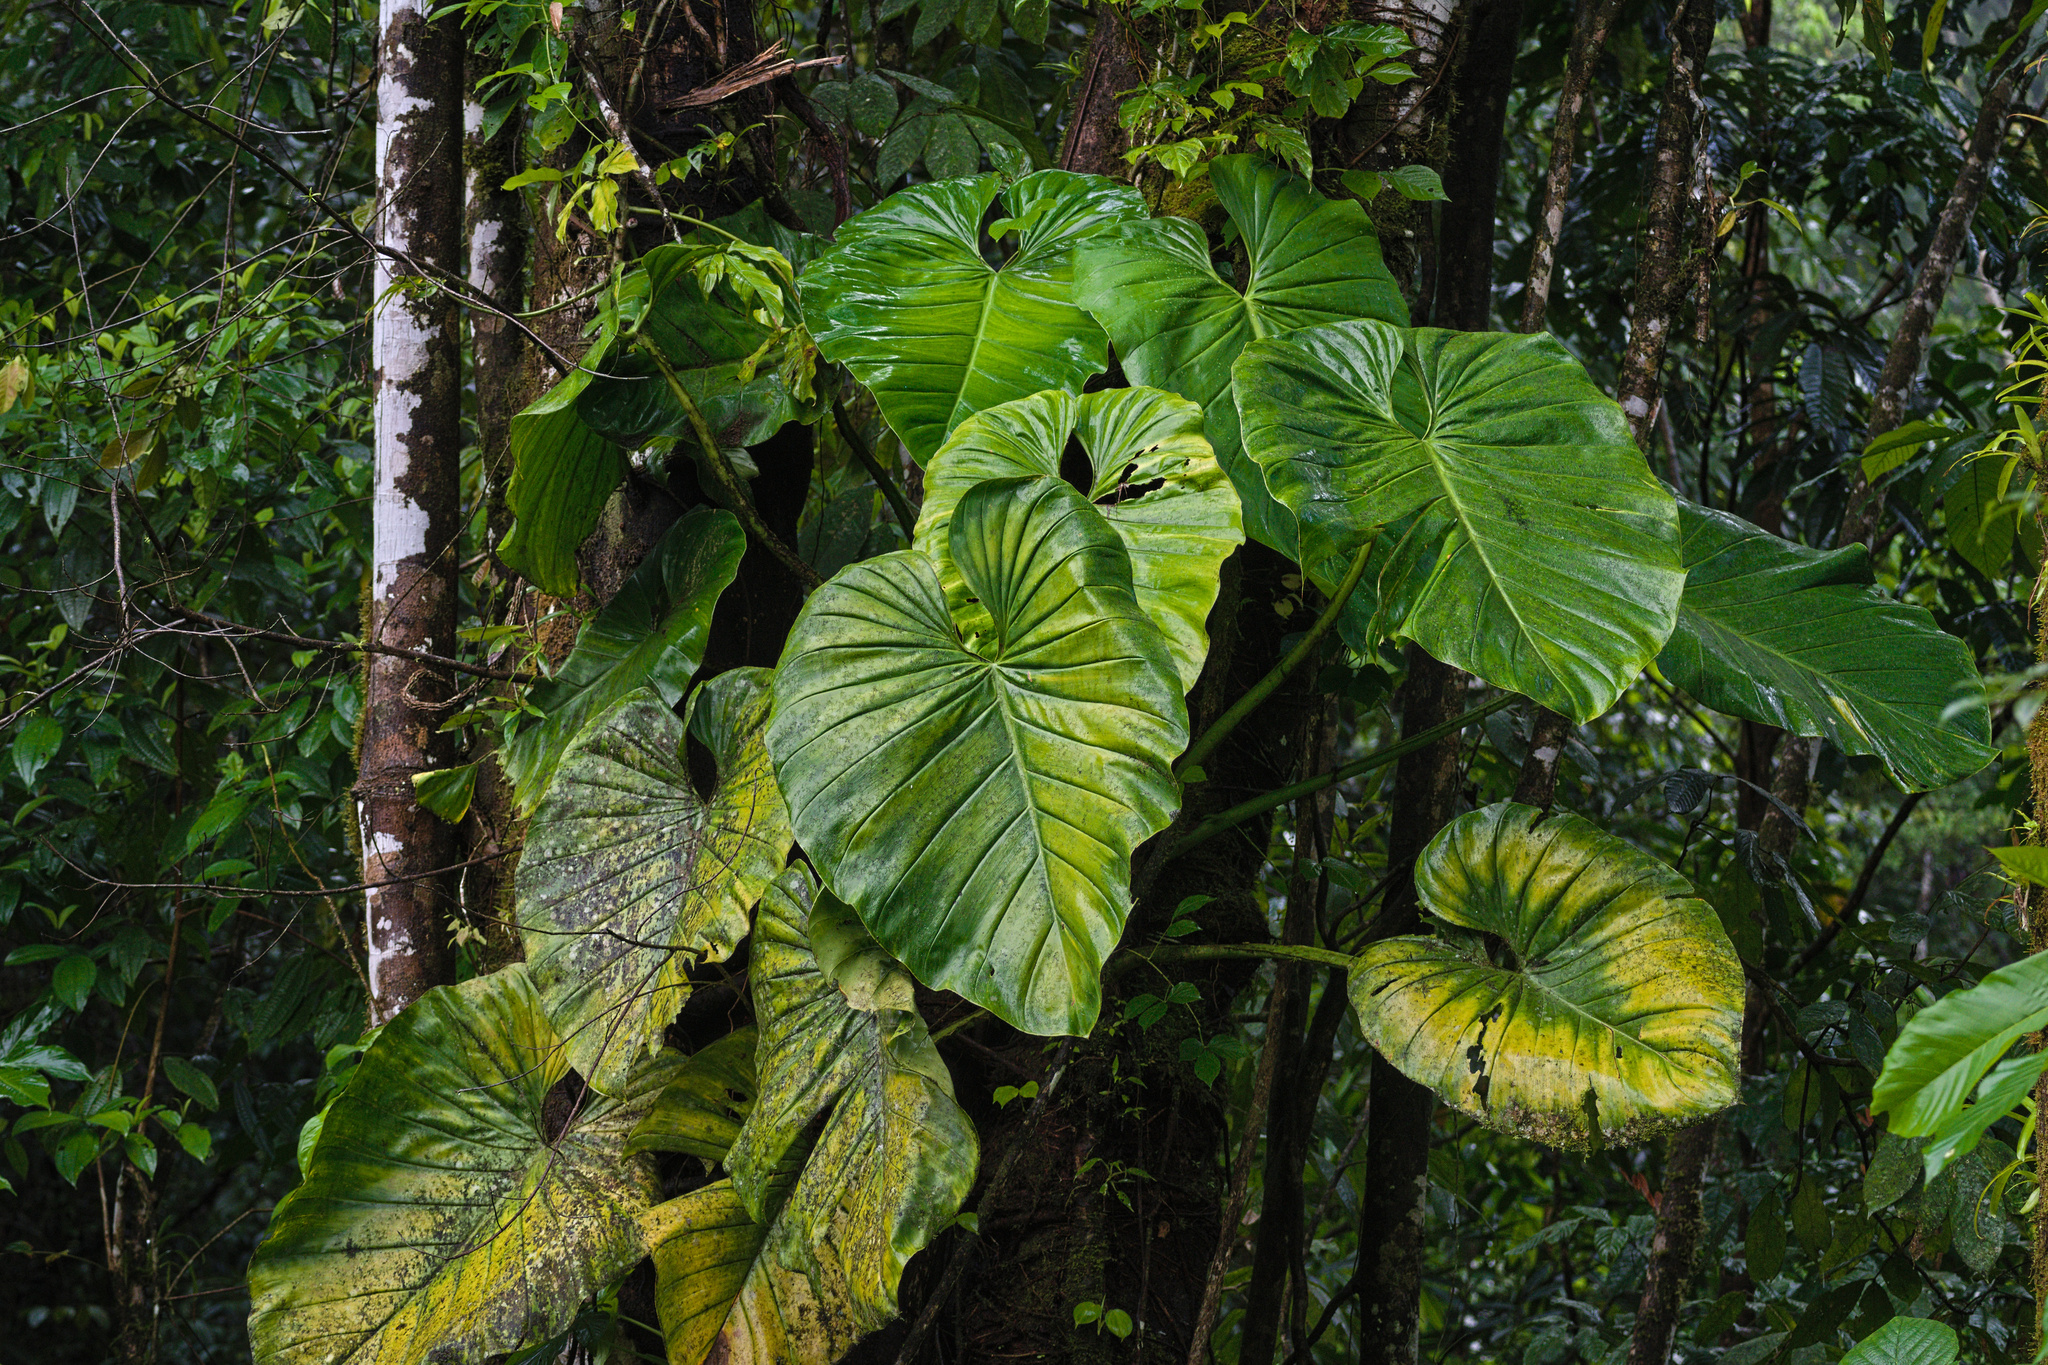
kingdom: Plantae
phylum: Tracheophyta
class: Liliopsida
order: Alismatales
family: Araceae
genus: Philodendron
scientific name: Philodendron pterotum
